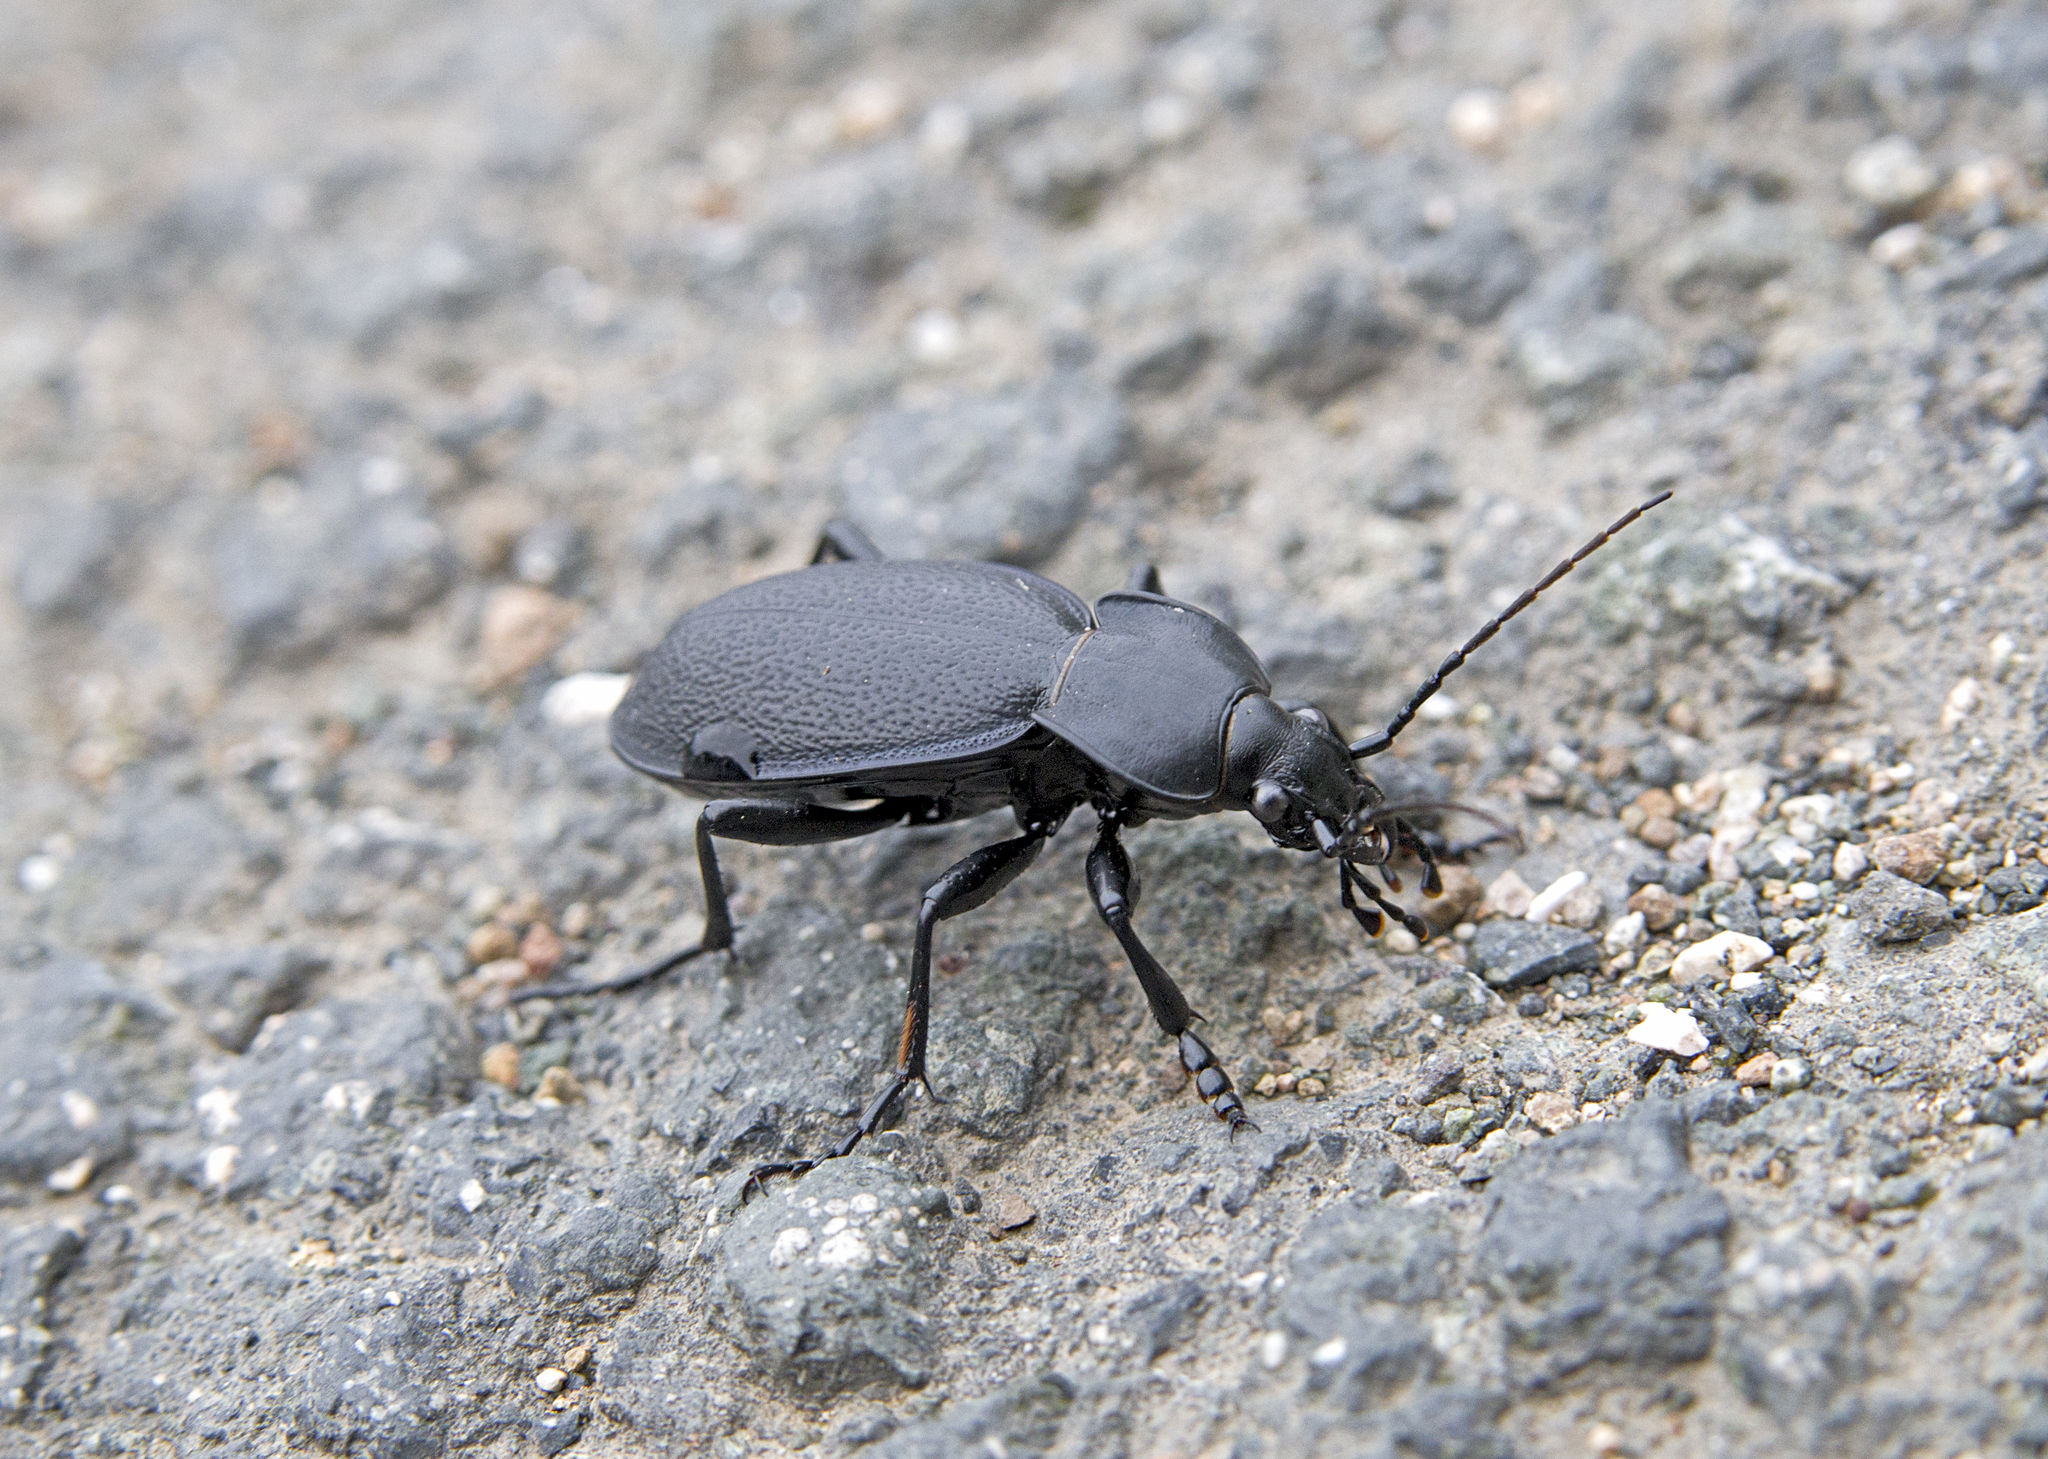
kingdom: Animalia
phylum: Arthropoda
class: Insecta
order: Coleoptera
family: Carabidae
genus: Carabus
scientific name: Carabus coriaceus
